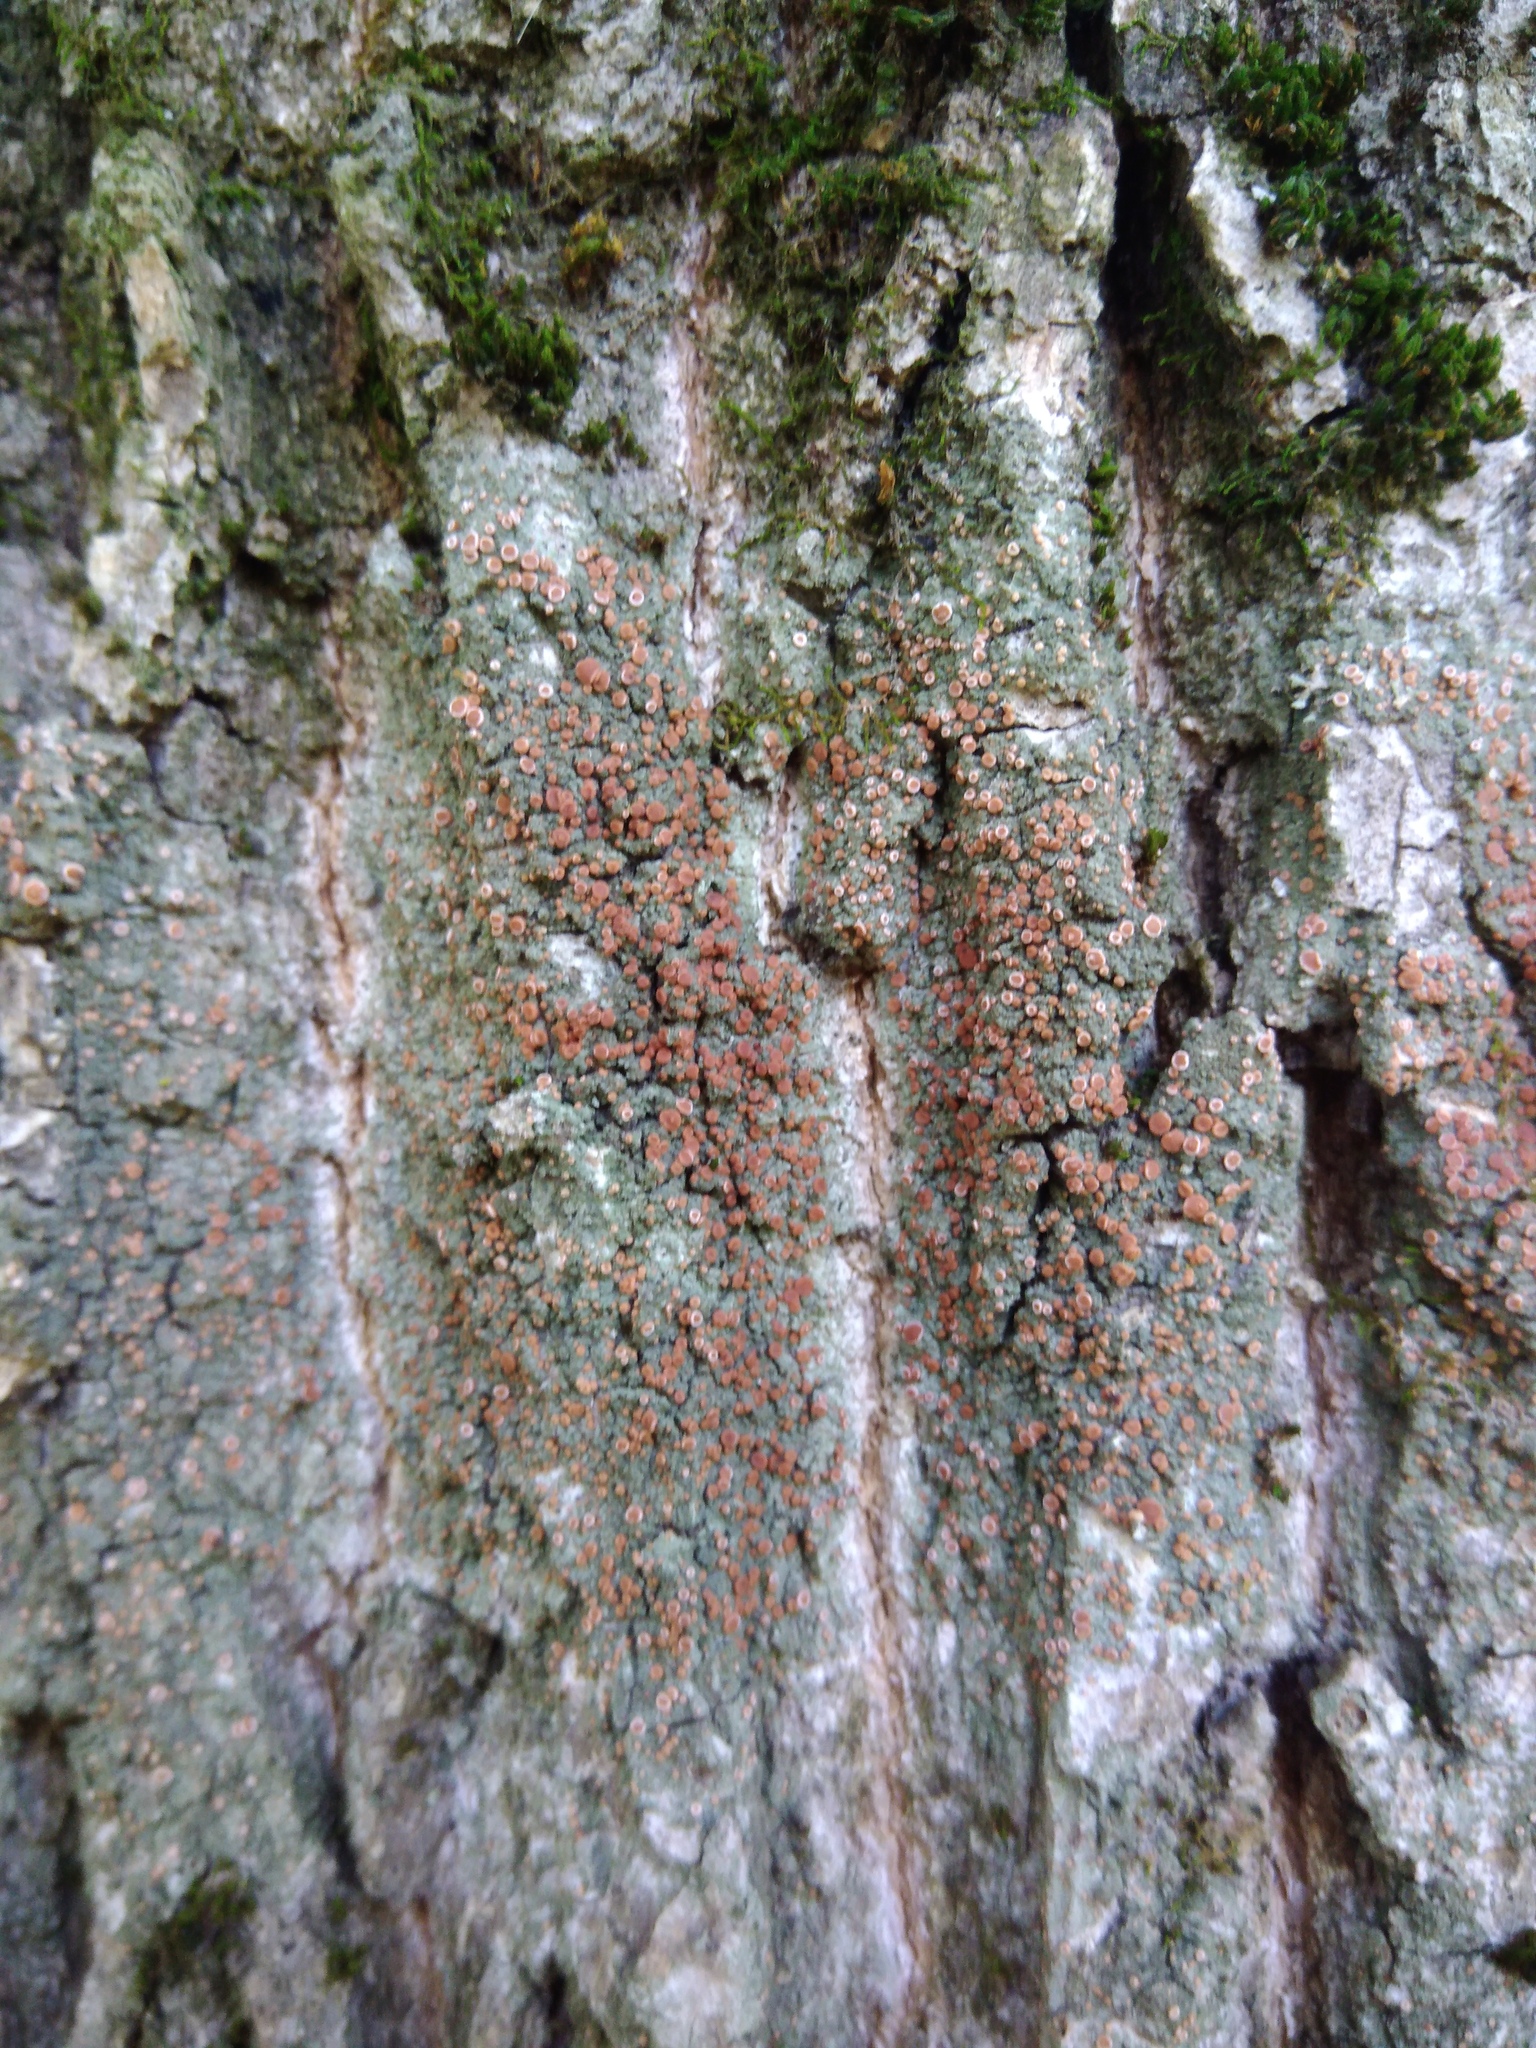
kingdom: Fungi
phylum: Ascomycota
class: Lecanoromycetes
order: Lecanorales
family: Ramalinaceae
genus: Bacidia
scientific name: Bacidia fraxinea
